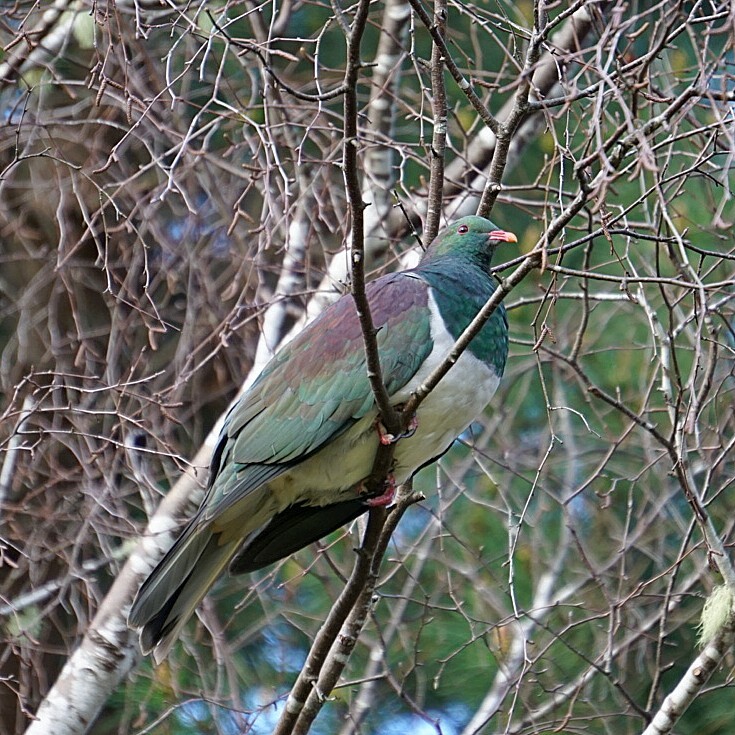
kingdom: Animalia
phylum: Chordata
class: Aves
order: Columbiformes
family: Columbidae
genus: Hemiphaga
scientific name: Hemiphaga novaeseelandiae
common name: New zealand pigeon
